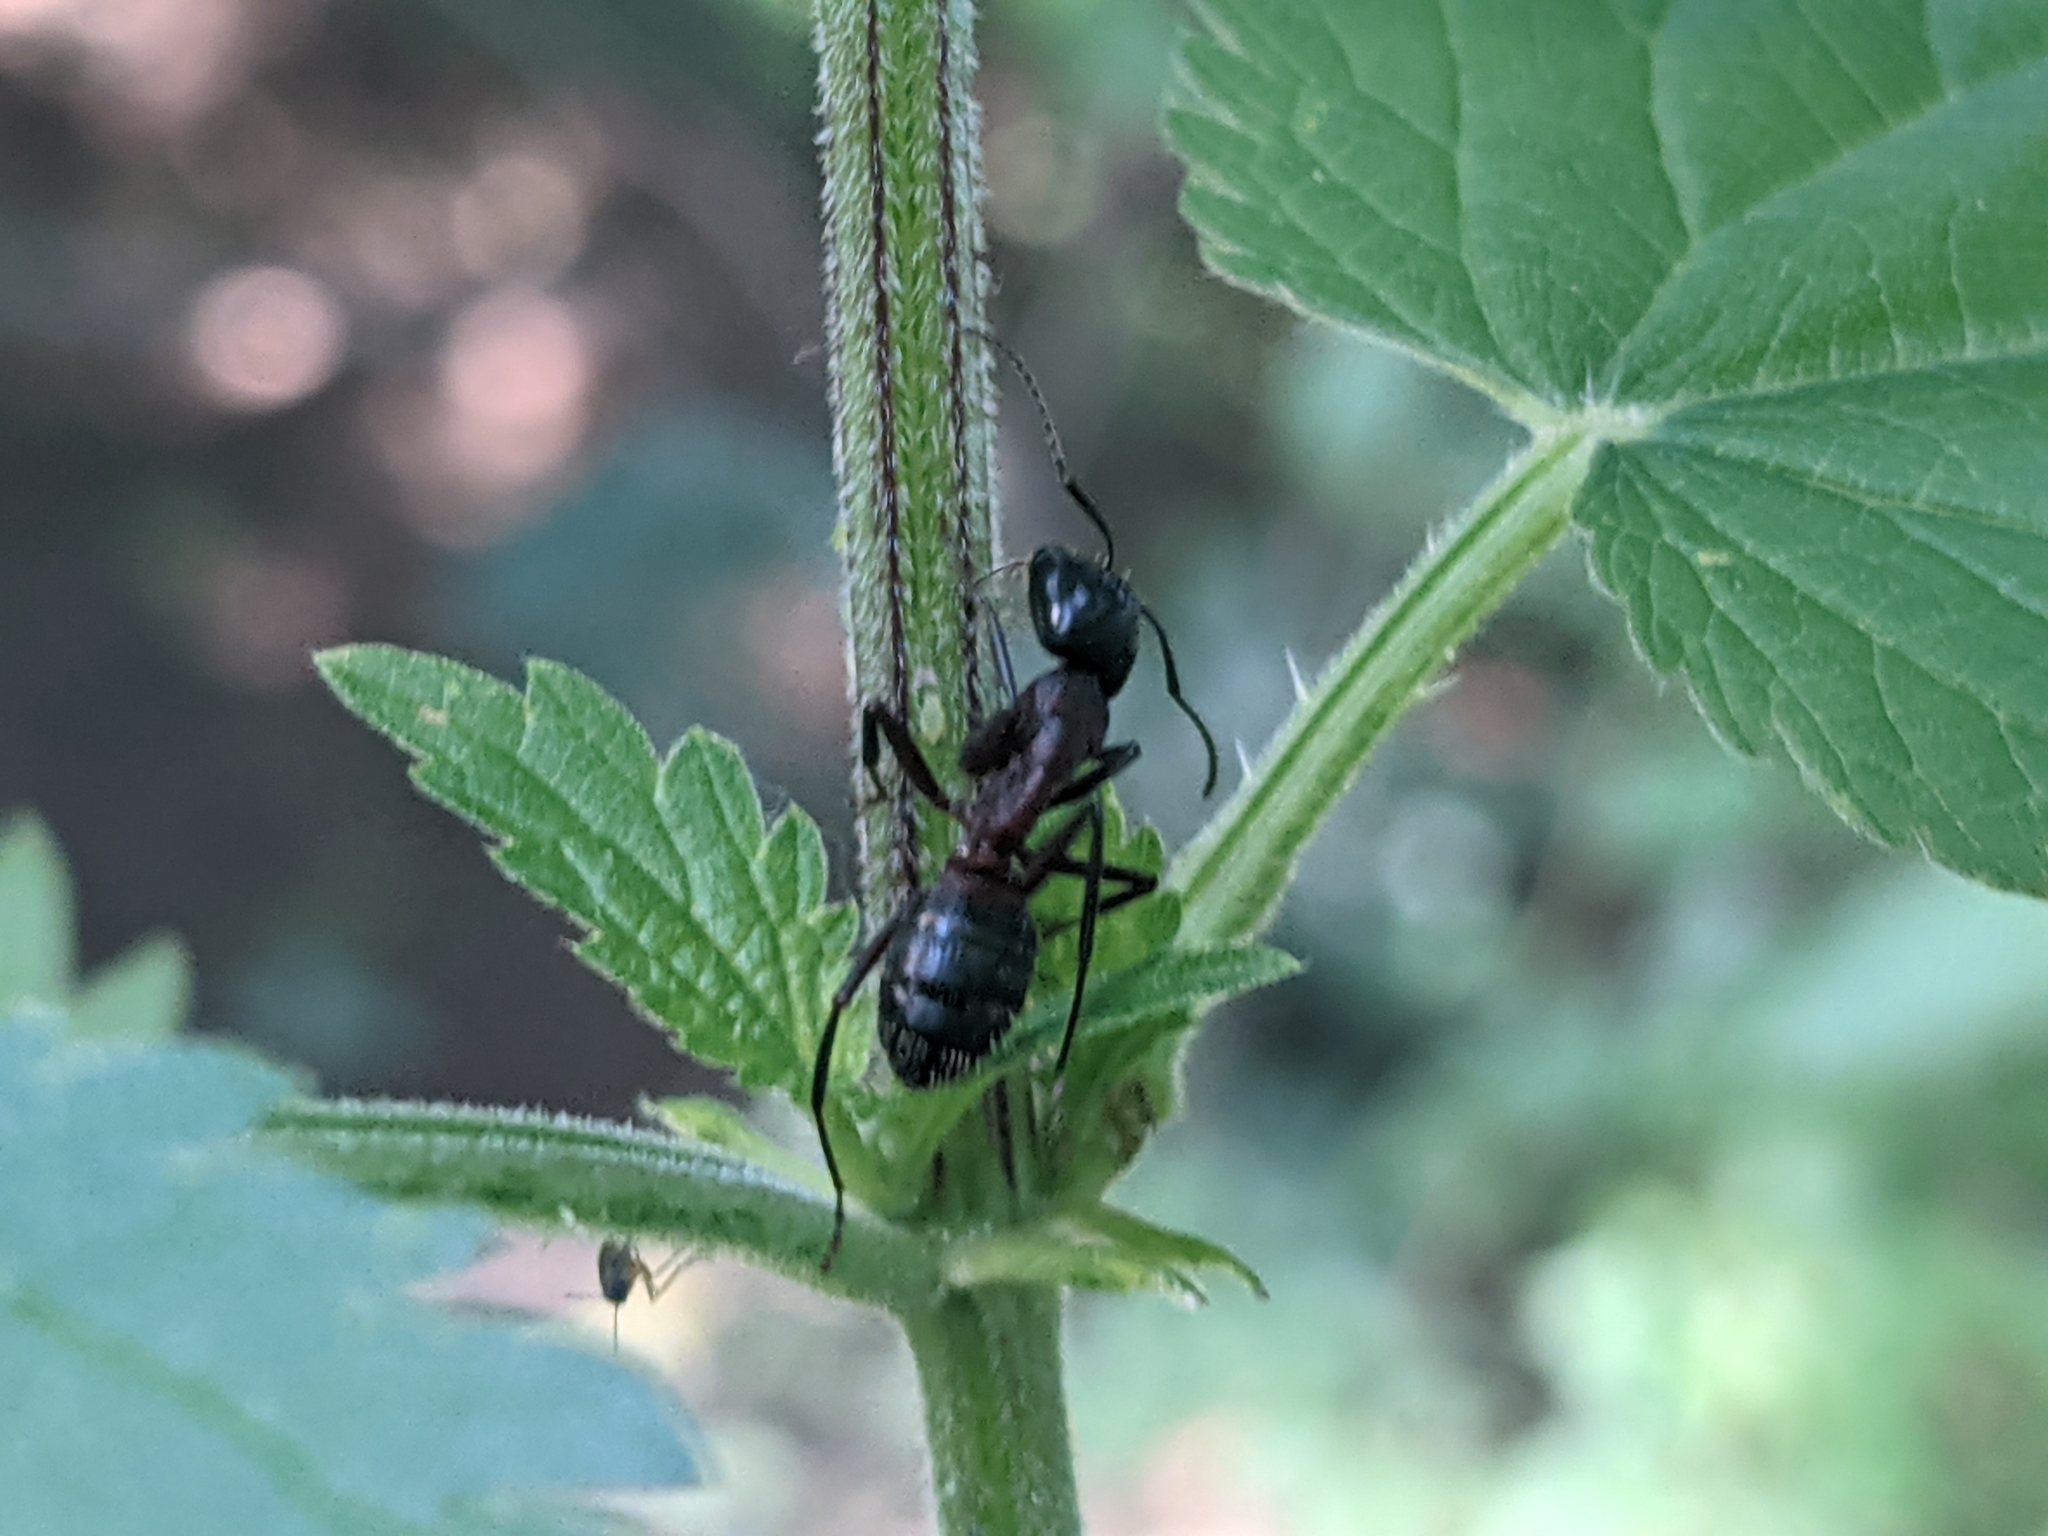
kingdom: Animalia
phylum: Arthropoda
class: Insecta
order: Hymenoptera
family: Formicidae
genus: Camponotus
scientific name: Camponotus ligniperdus
